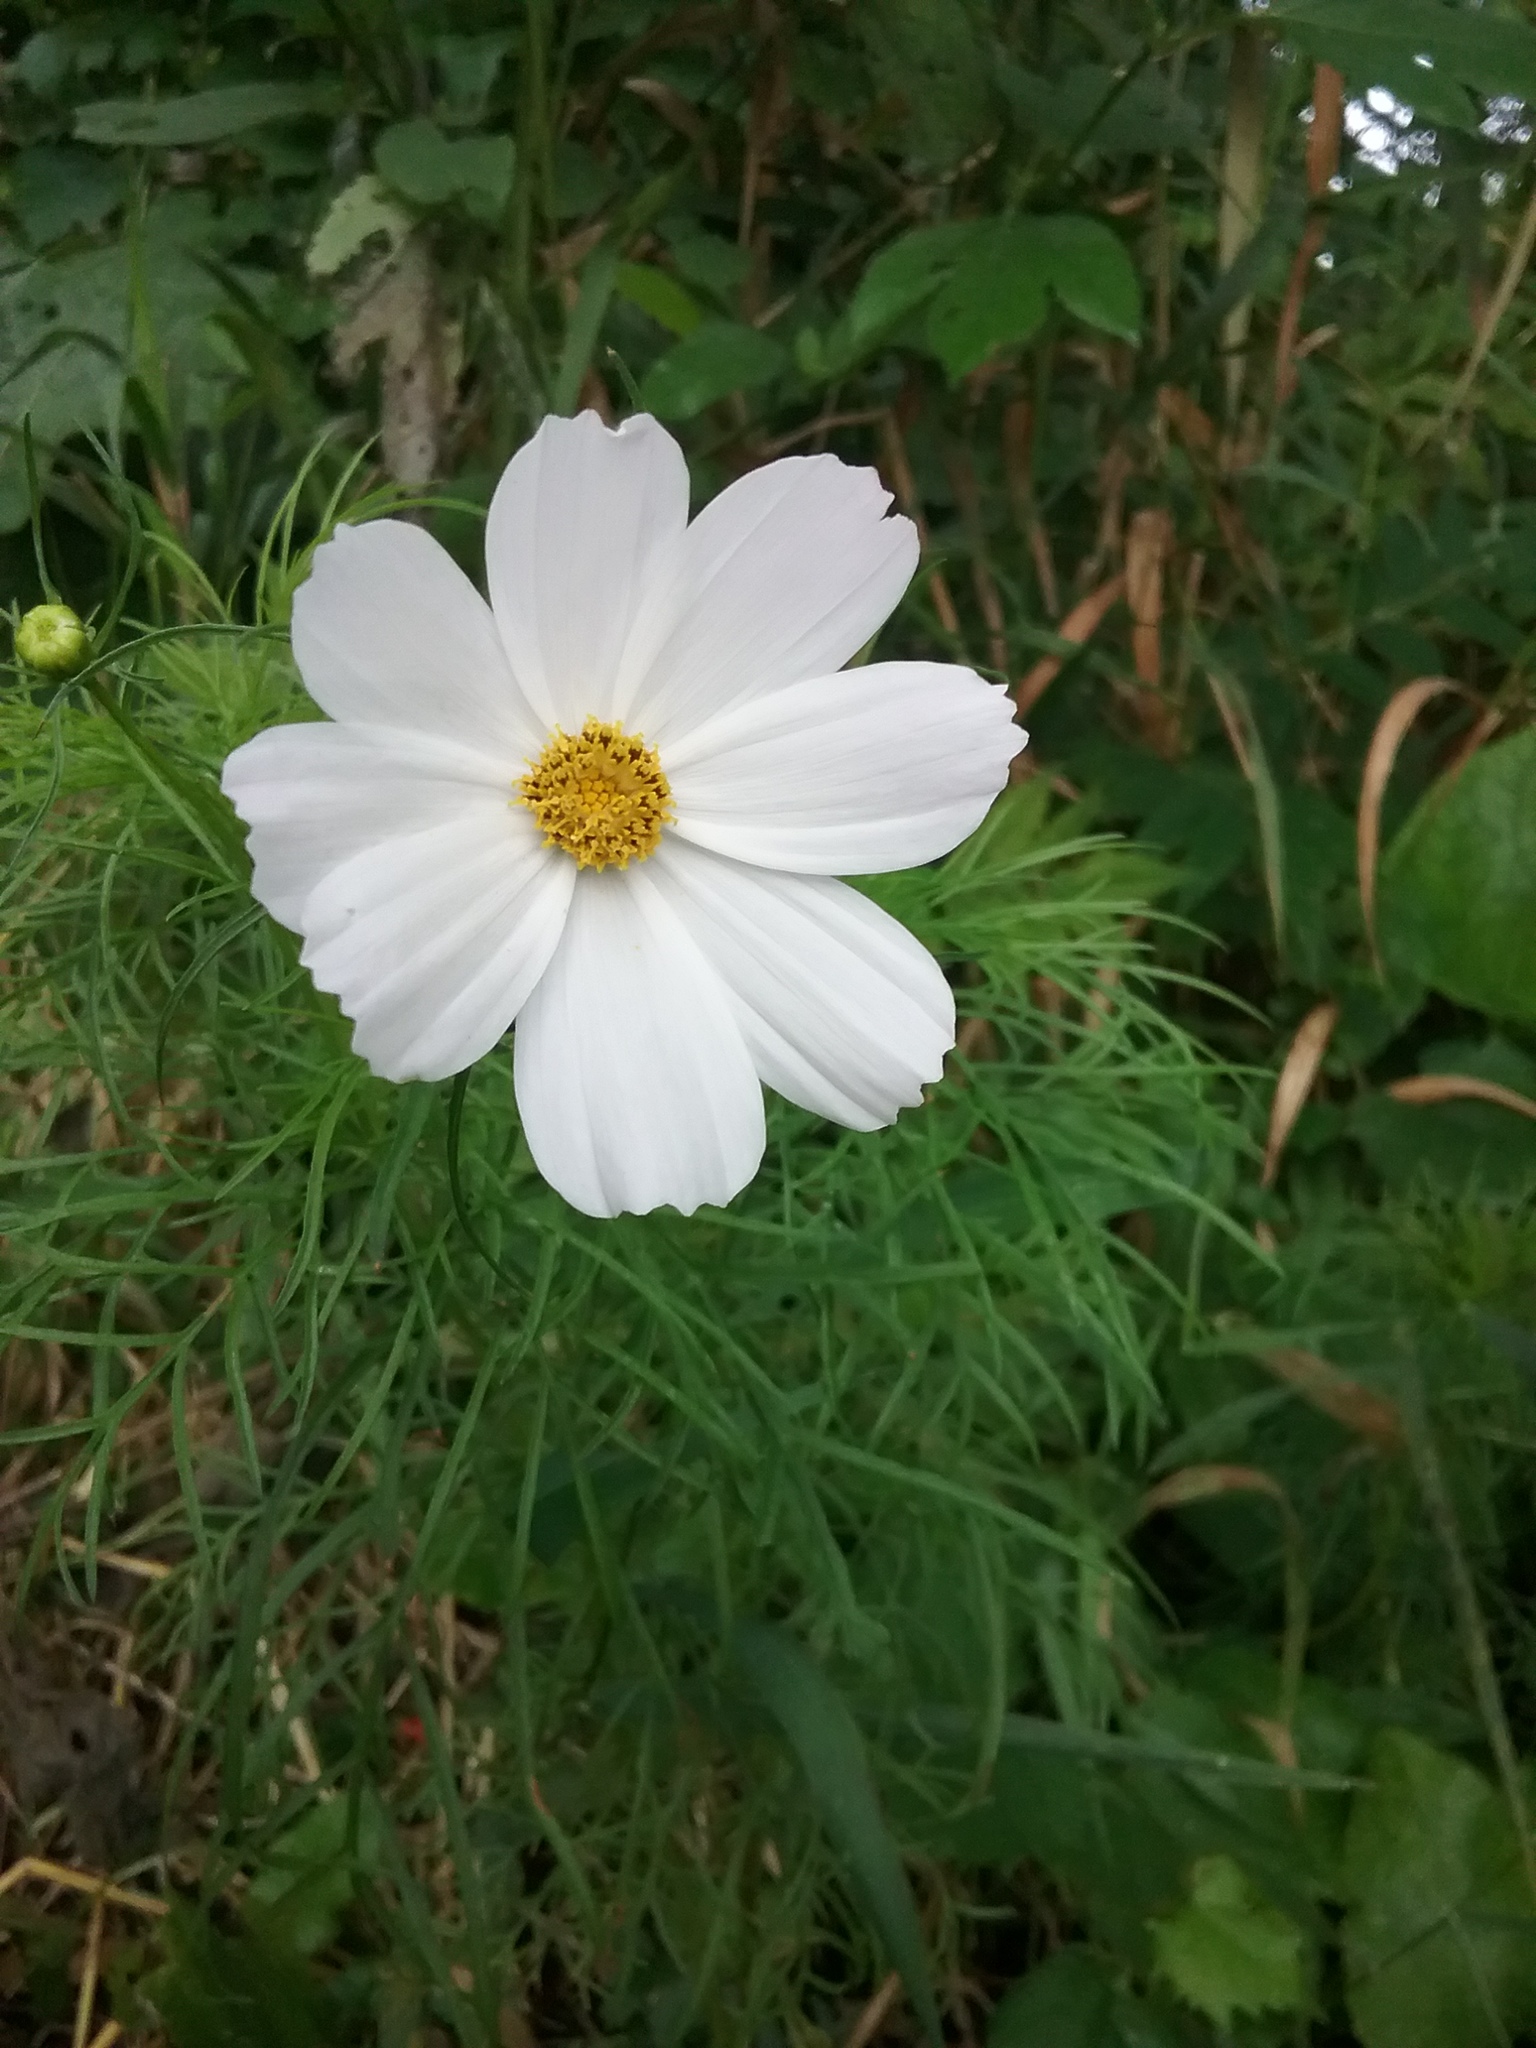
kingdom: Plantae
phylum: Tracheophyta
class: Magnoliopsida
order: Asterales
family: Asteraceae
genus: Cosmos
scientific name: Cosmos bipinnatus
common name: Garden cosmos
